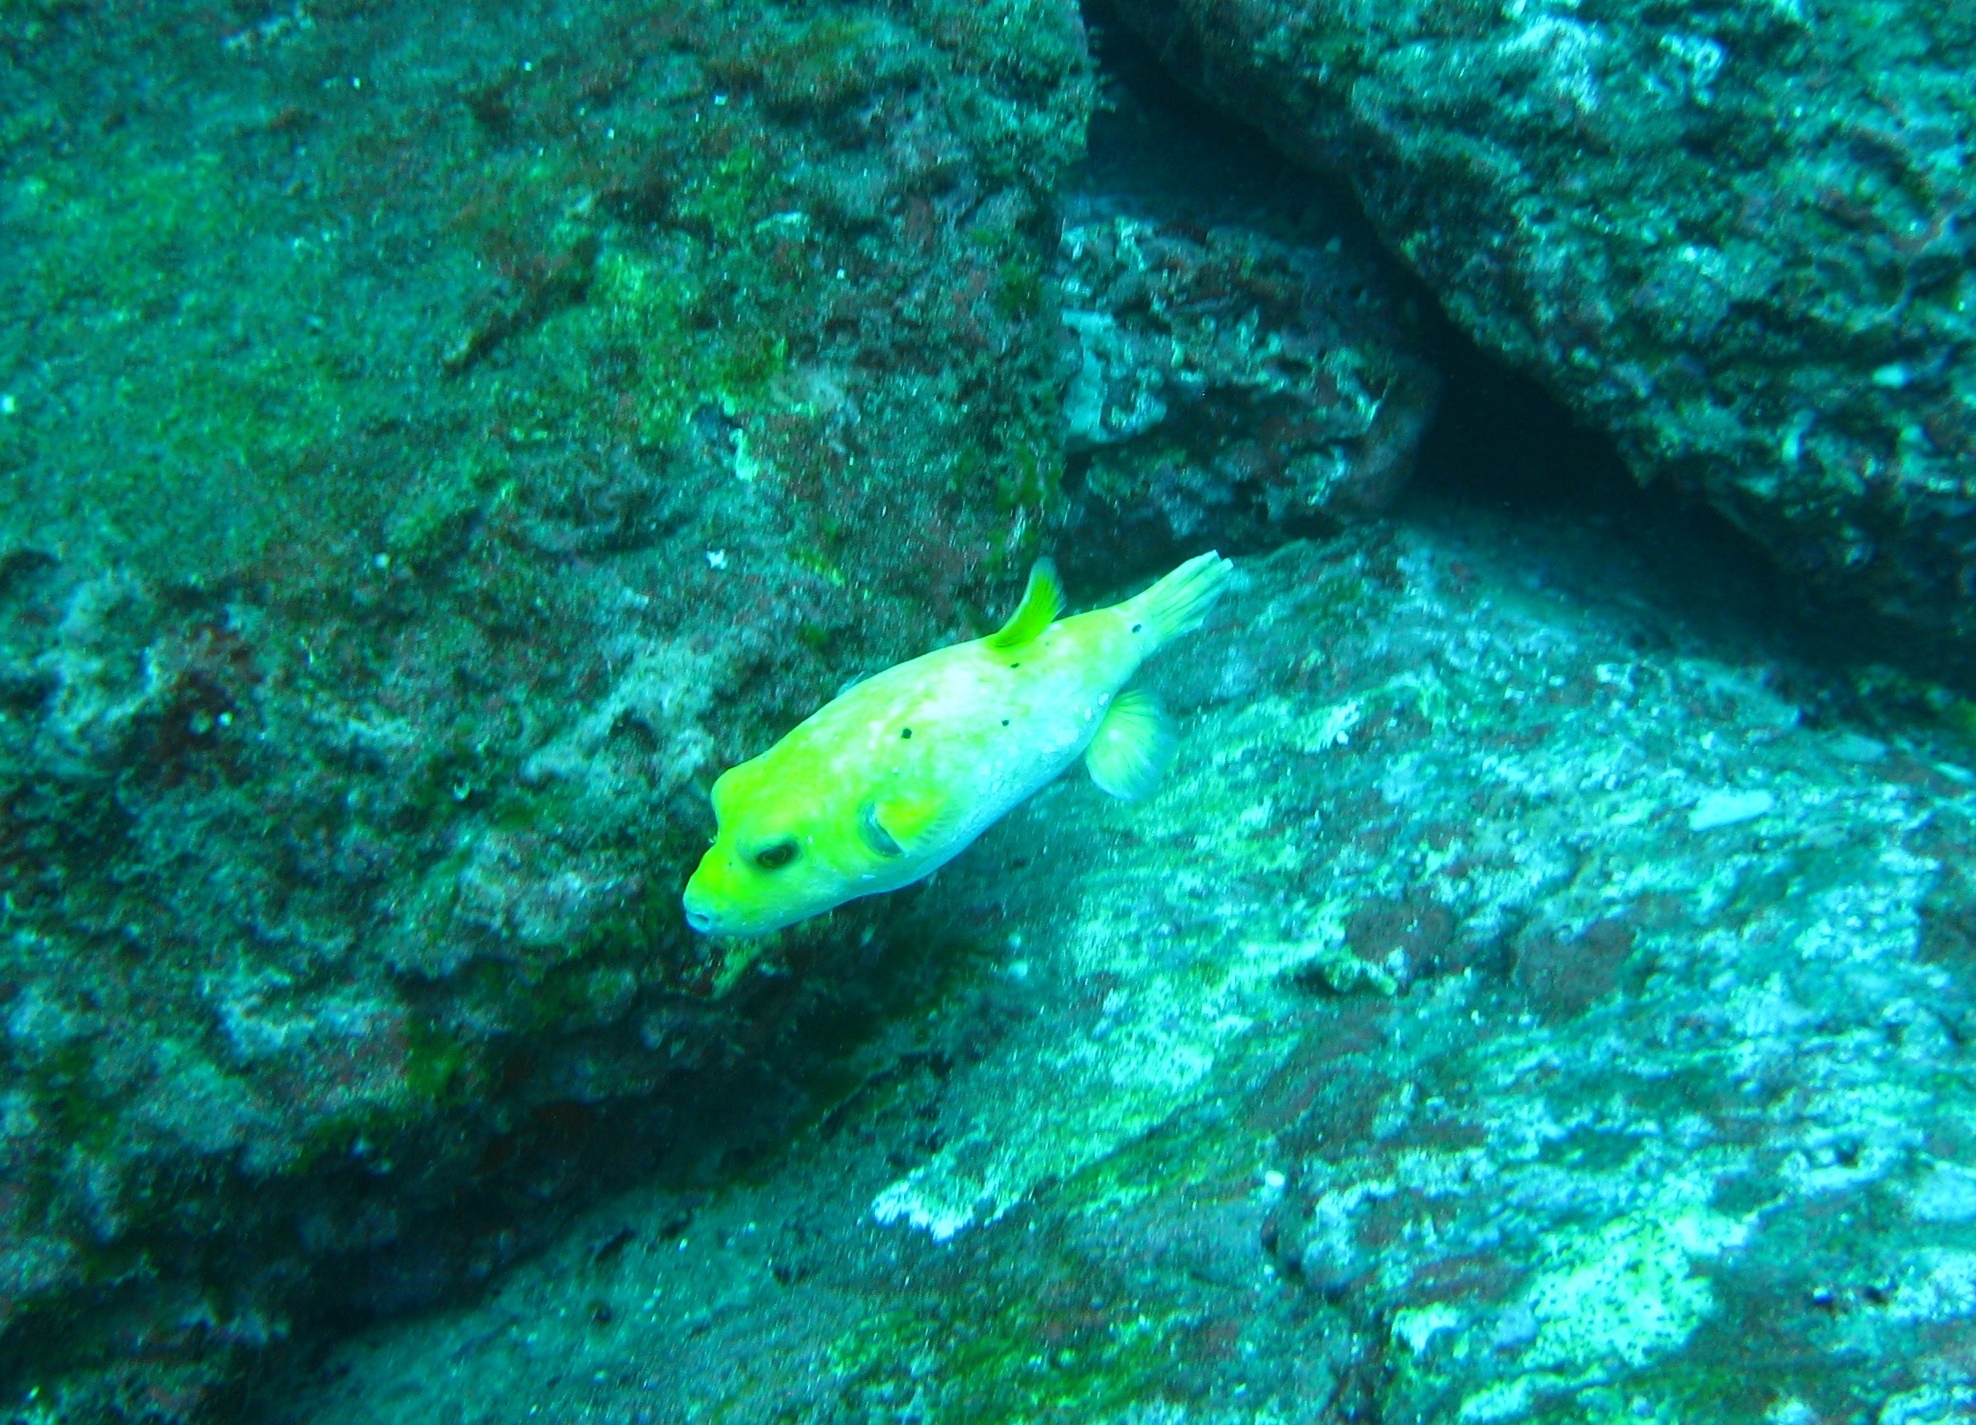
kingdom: Animalia
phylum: Chordata
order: Tetraodontiformes
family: Tetraodontidae
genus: Arothron
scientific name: Arothron meleagris
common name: Guinea-fowl pufferfish
